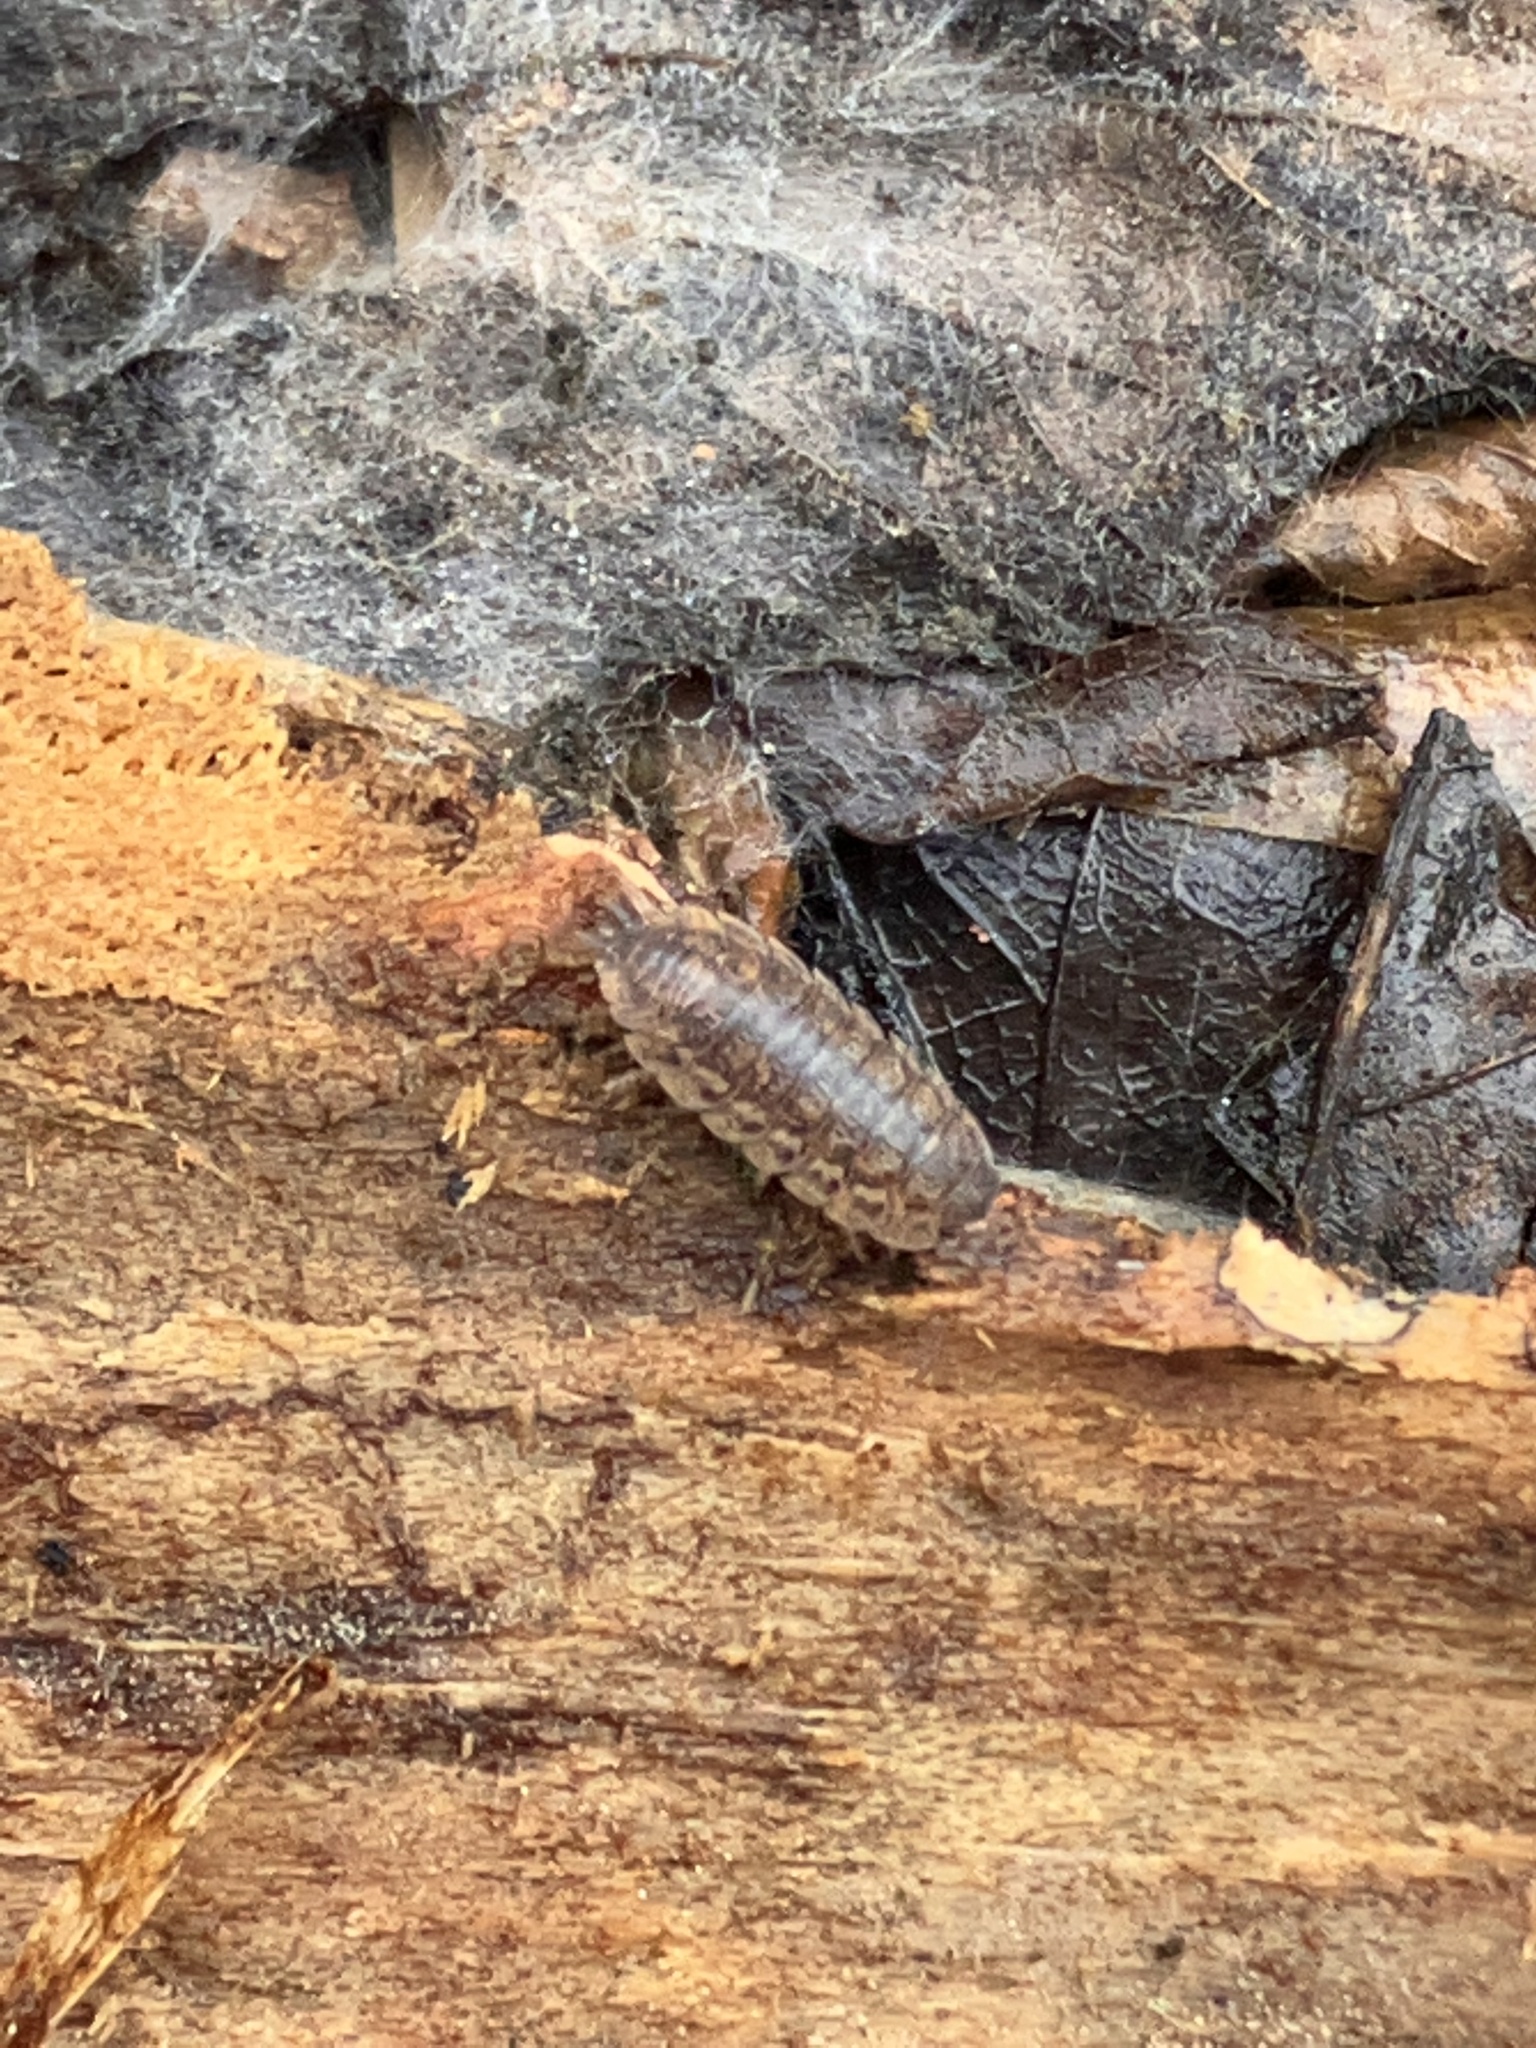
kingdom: Animalia
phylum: Arthropoda
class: Malacostraca
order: Isopoda
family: Trachelipodidae
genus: Trachelipus
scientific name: Trachelipus rathkii
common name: Isopod
